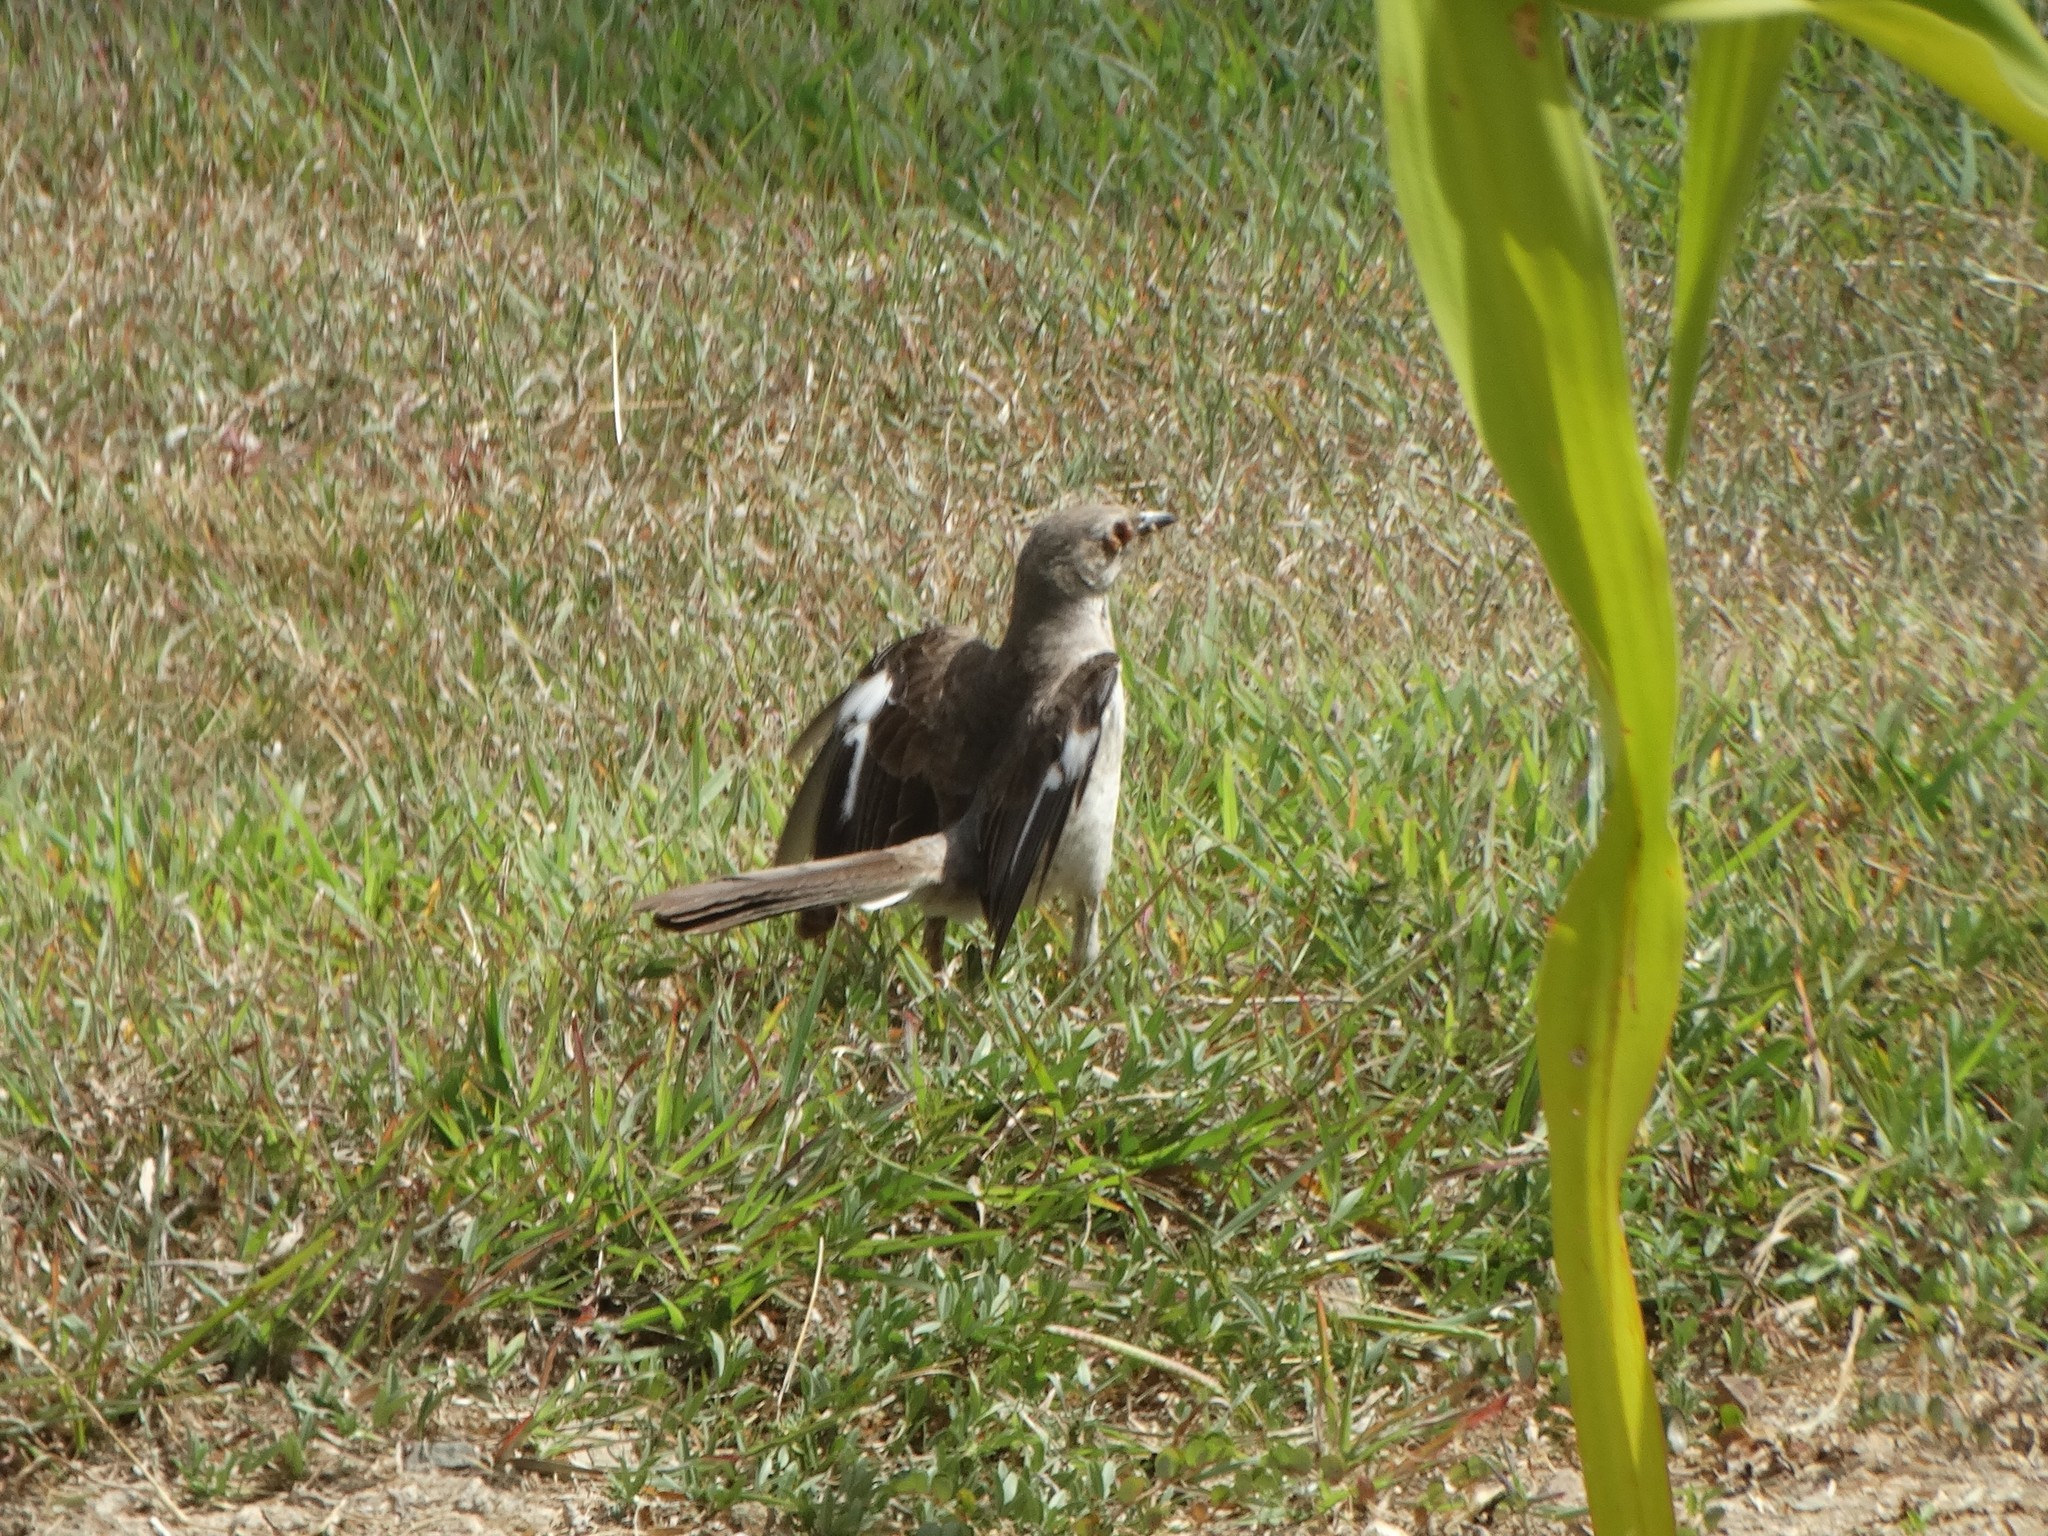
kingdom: Animalia
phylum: Chordata
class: Aves
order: Passeriformes
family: Mimidae
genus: Mimus
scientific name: Mimus polyglottos
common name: Northern mockingbird
